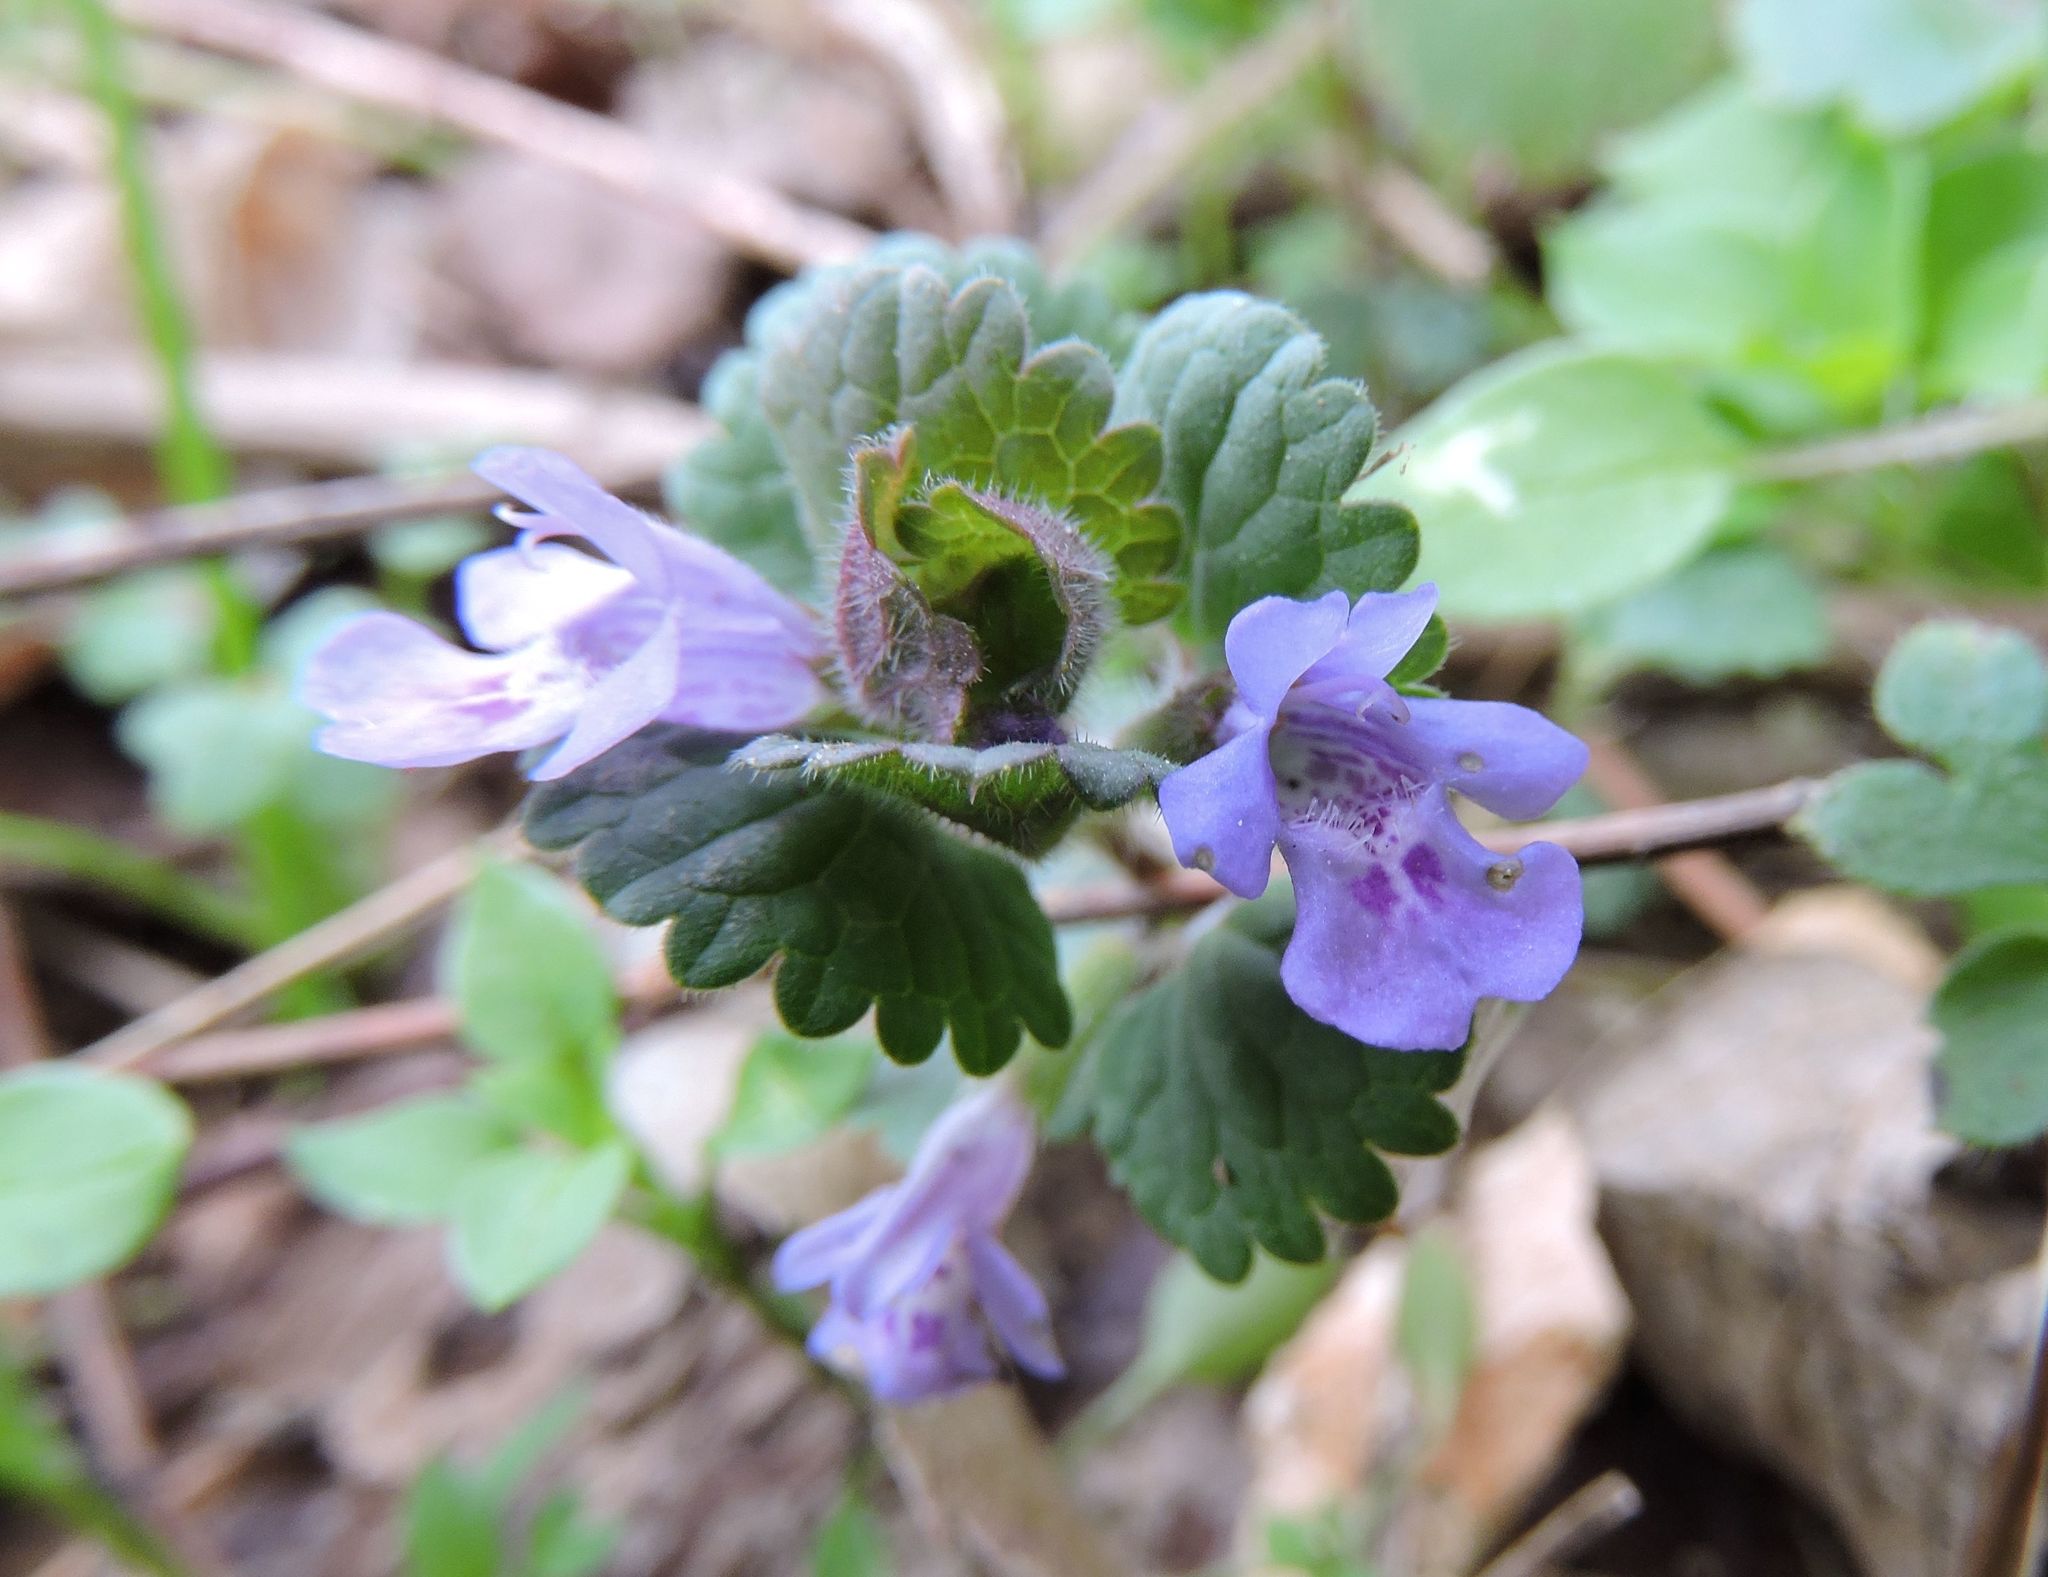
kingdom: Plantae
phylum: Tracheophyta
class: Magnoliopsida
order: Lamiales
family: Lamiaceae
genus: Glechoma
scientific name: Glechoma hederacea
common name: Ground ivy
